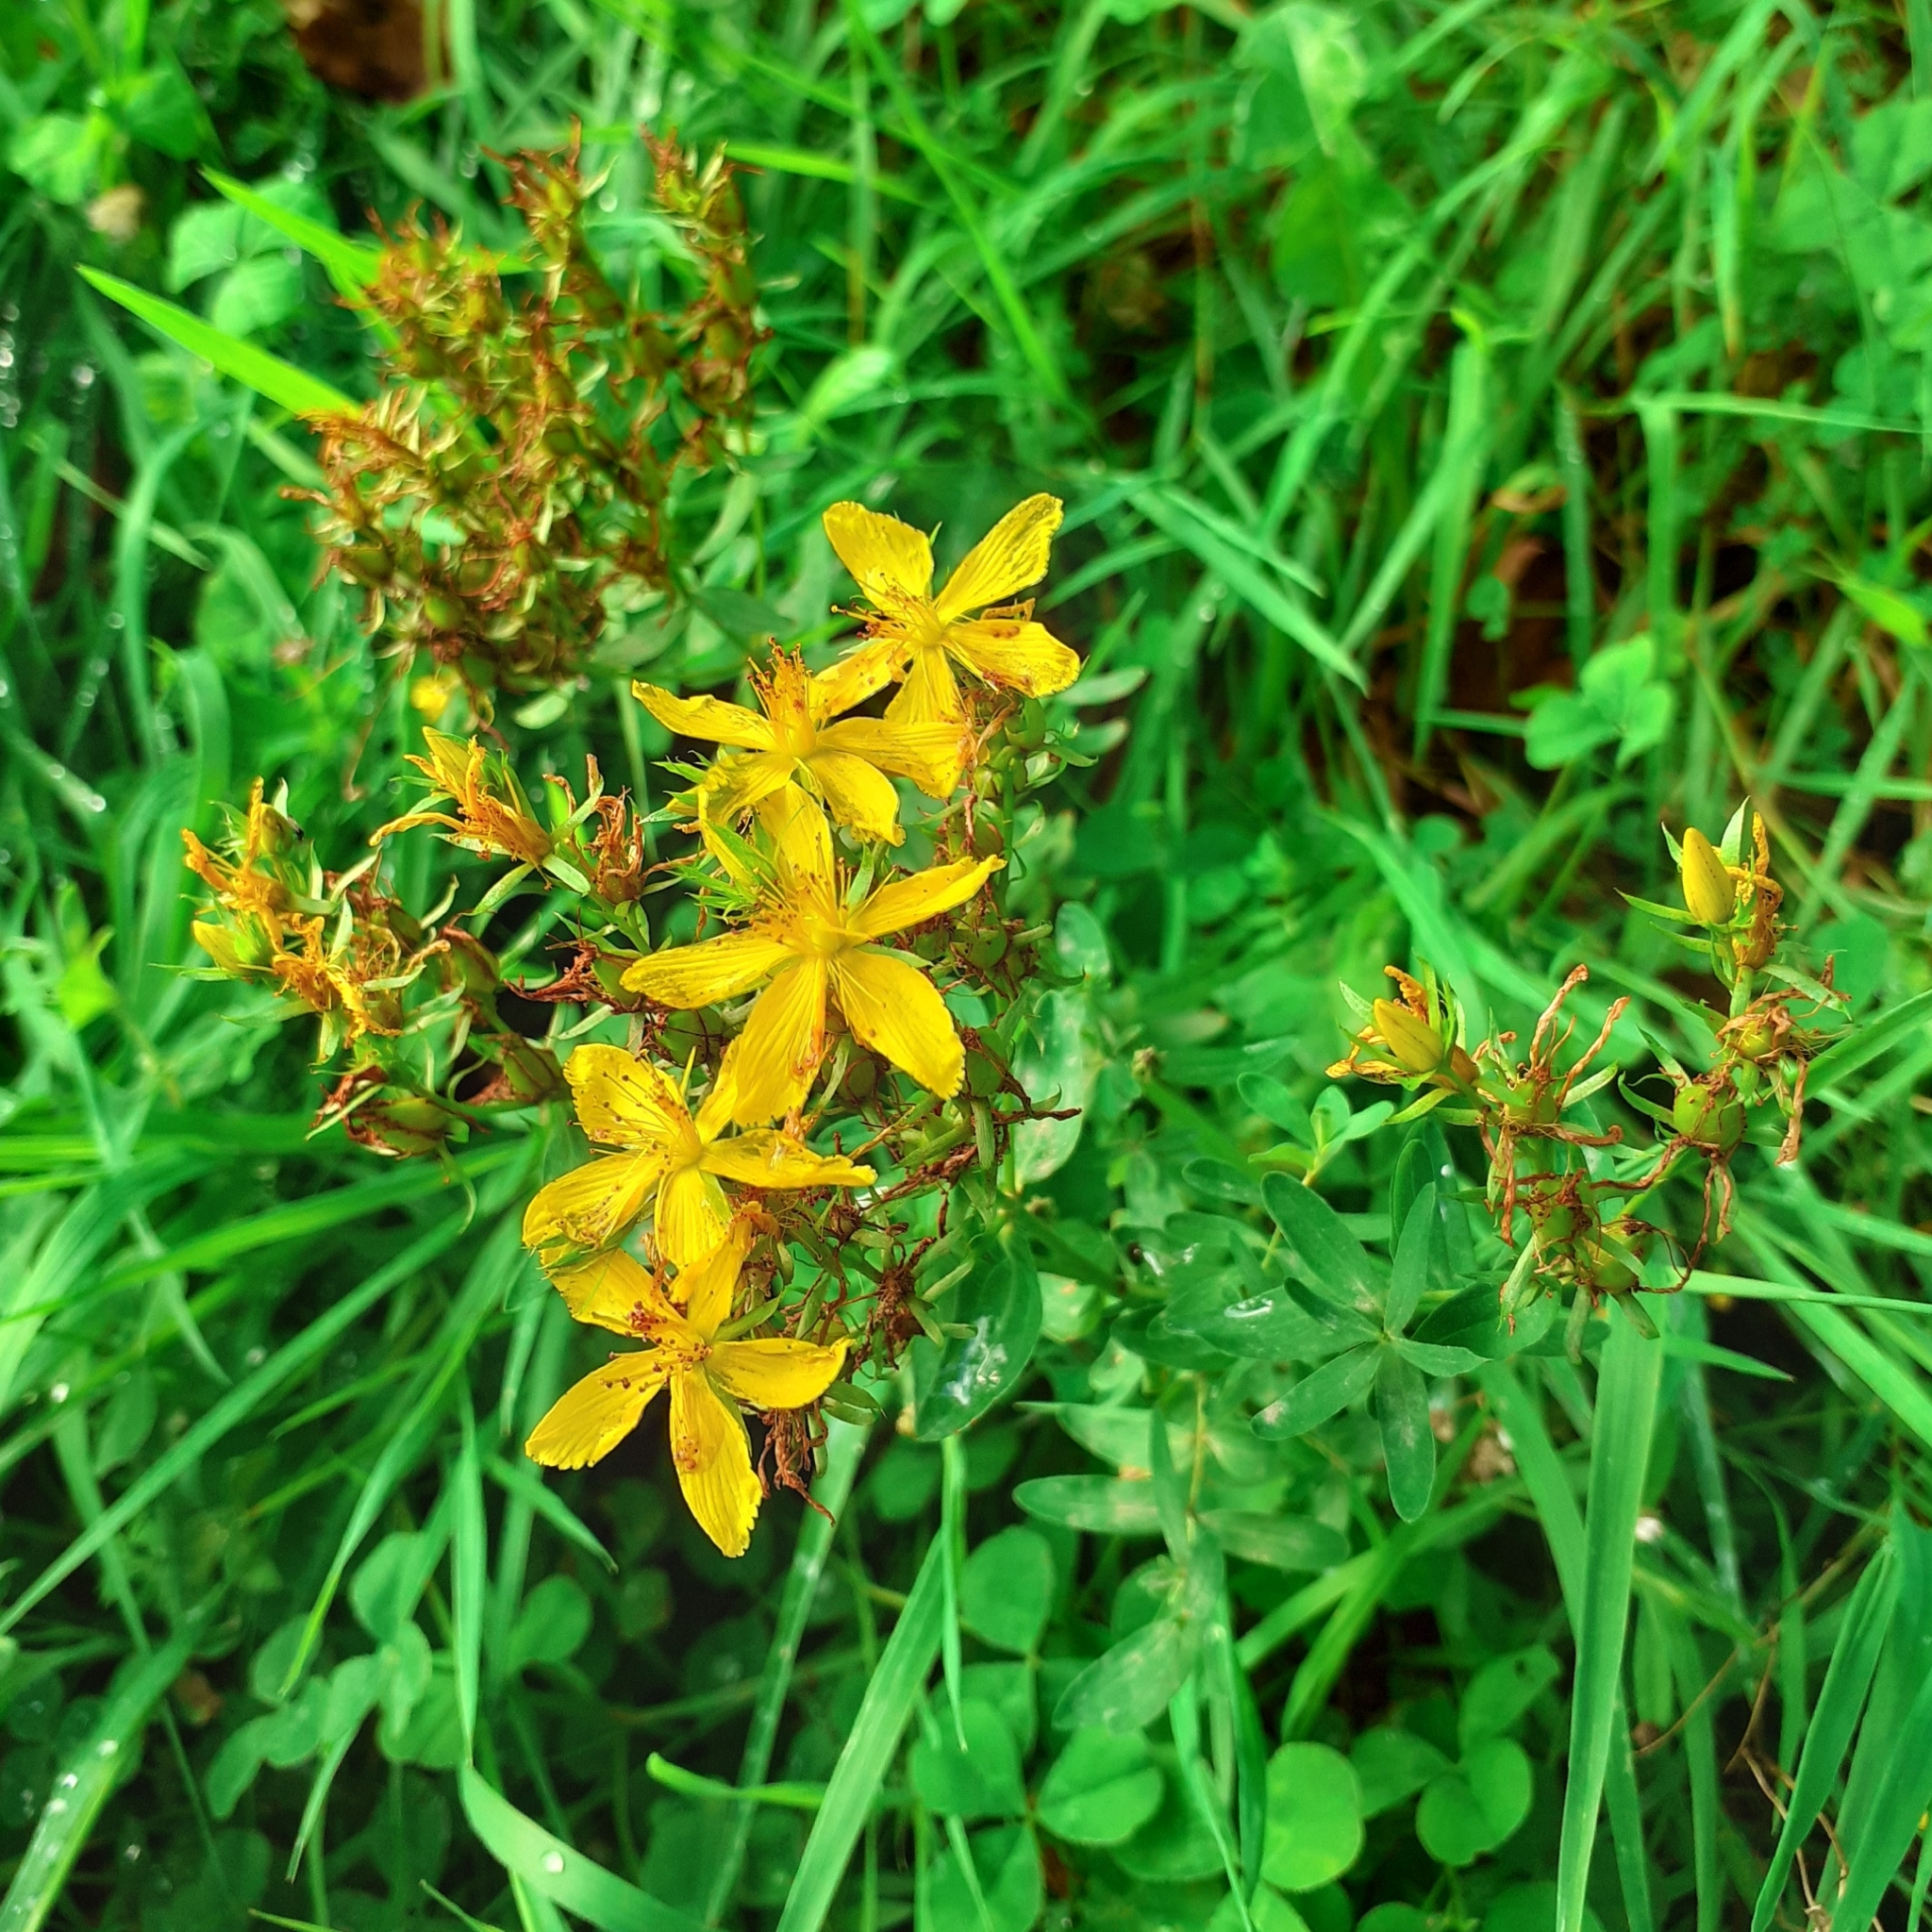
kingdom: Plantae
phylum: Tracheophyta
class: Magnoliopsida
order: Malpighiales
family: Hypericaceae
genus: Hypericum
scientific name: Hypericum perforatum
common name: Common st. johnswort
